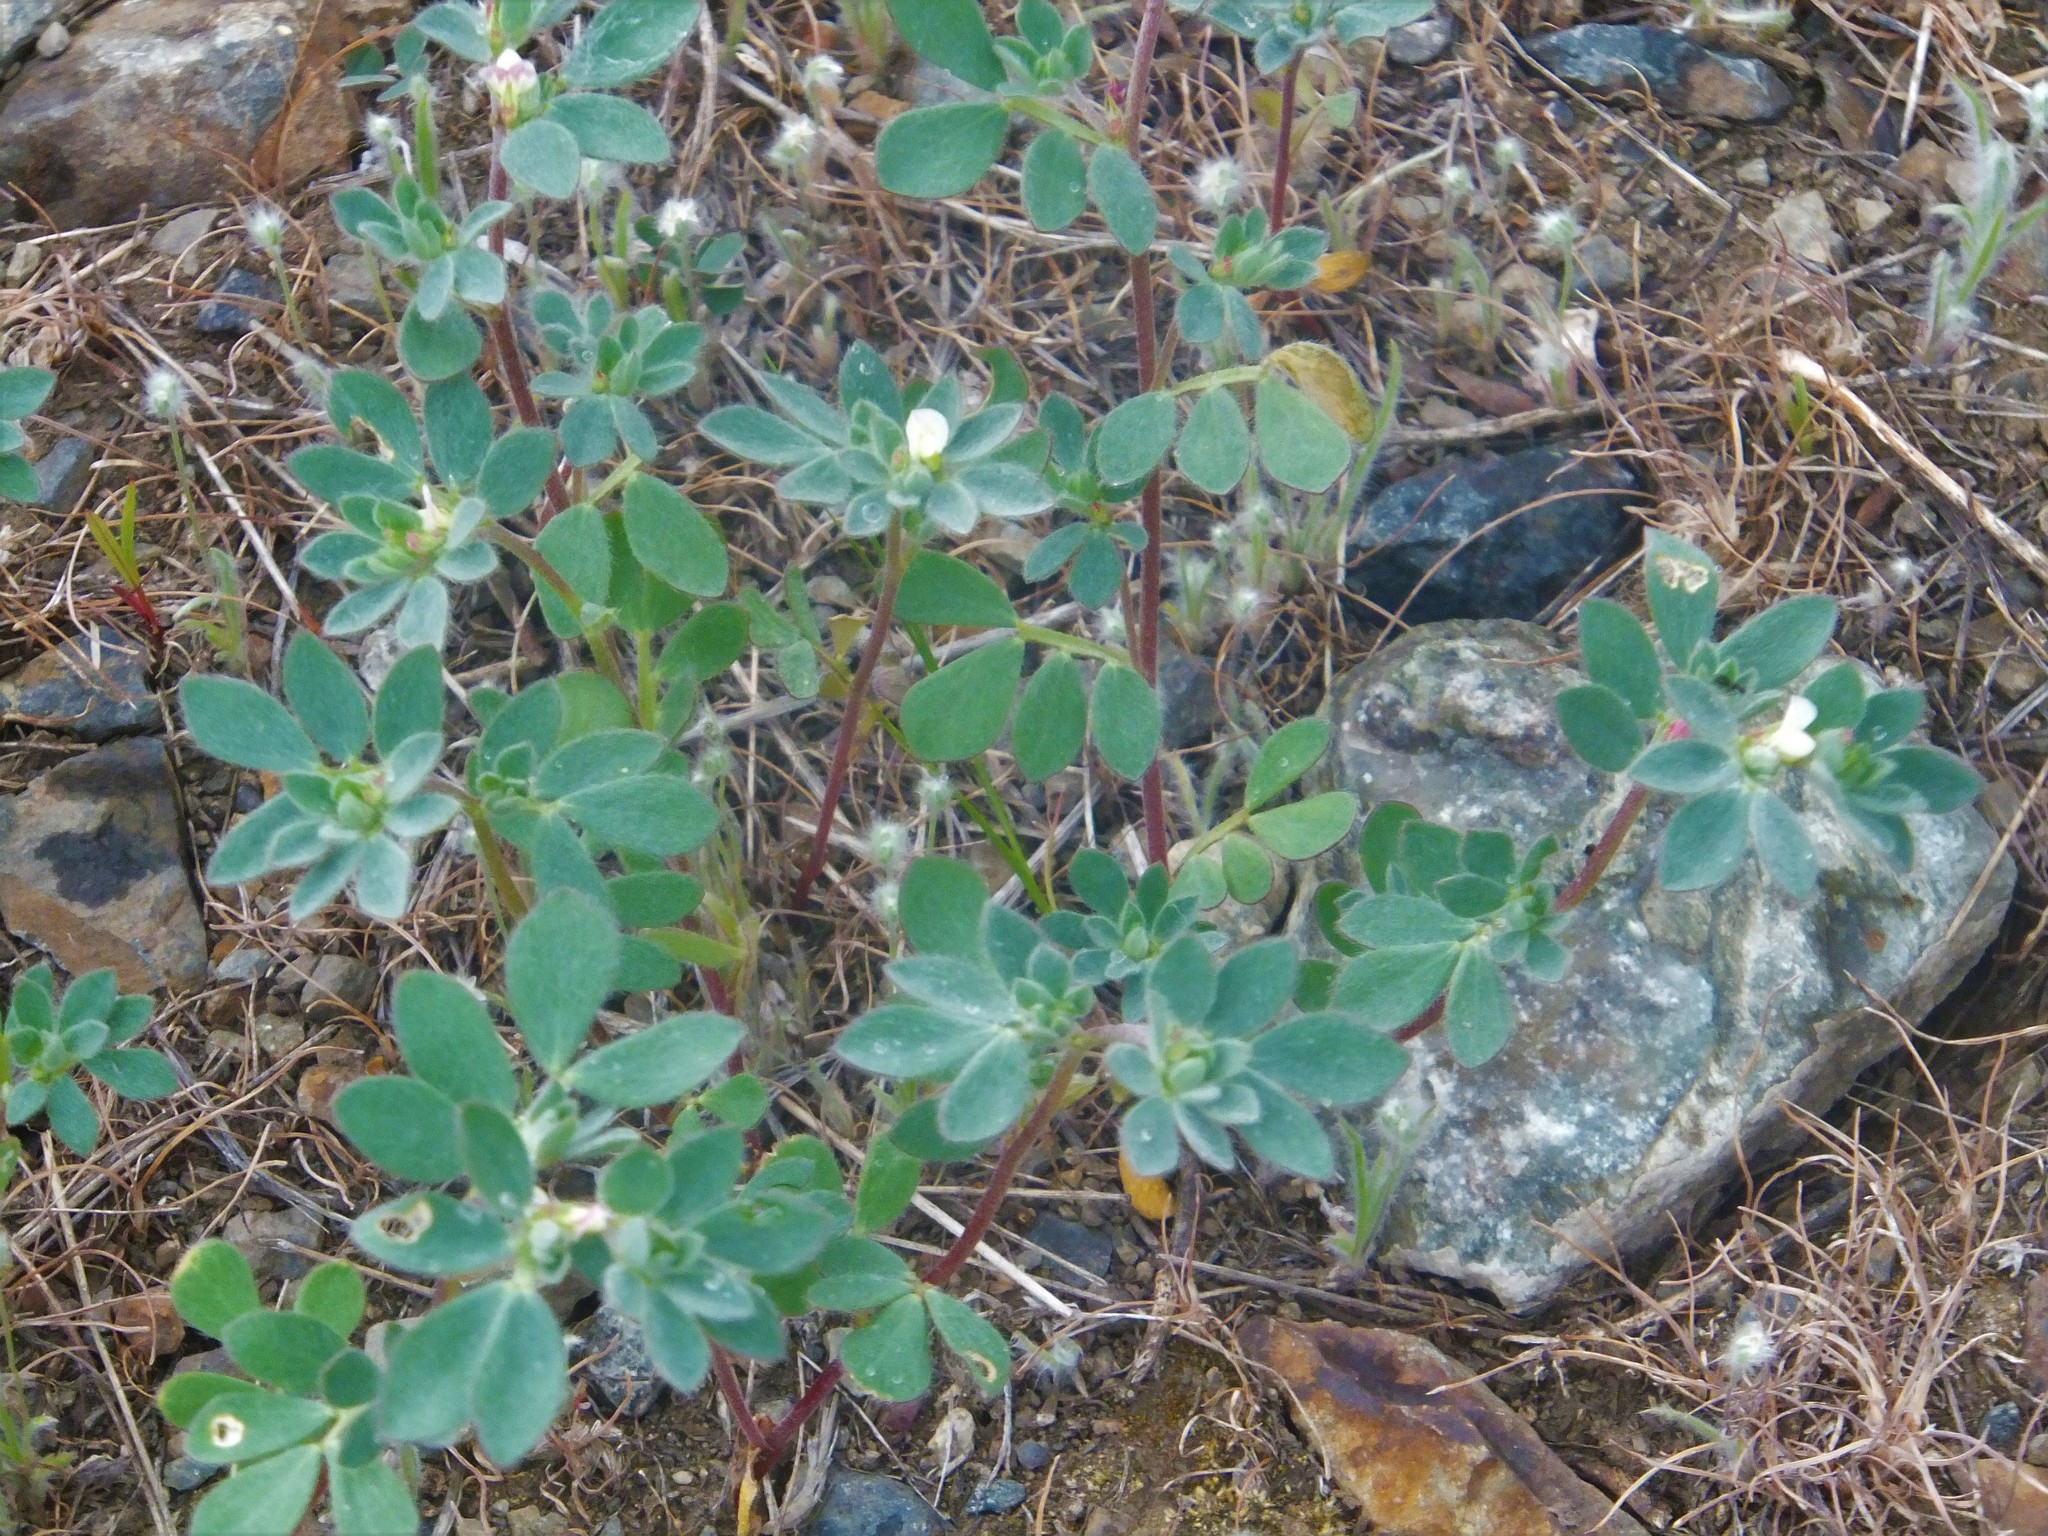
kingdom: Plantae
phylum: Tracheophyta
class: Magnoliopsida
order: Fabales
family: Fabaceae
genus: Acmispon
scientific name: Acmispon denticulatus
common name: Meadow bird's-foot trefoil
